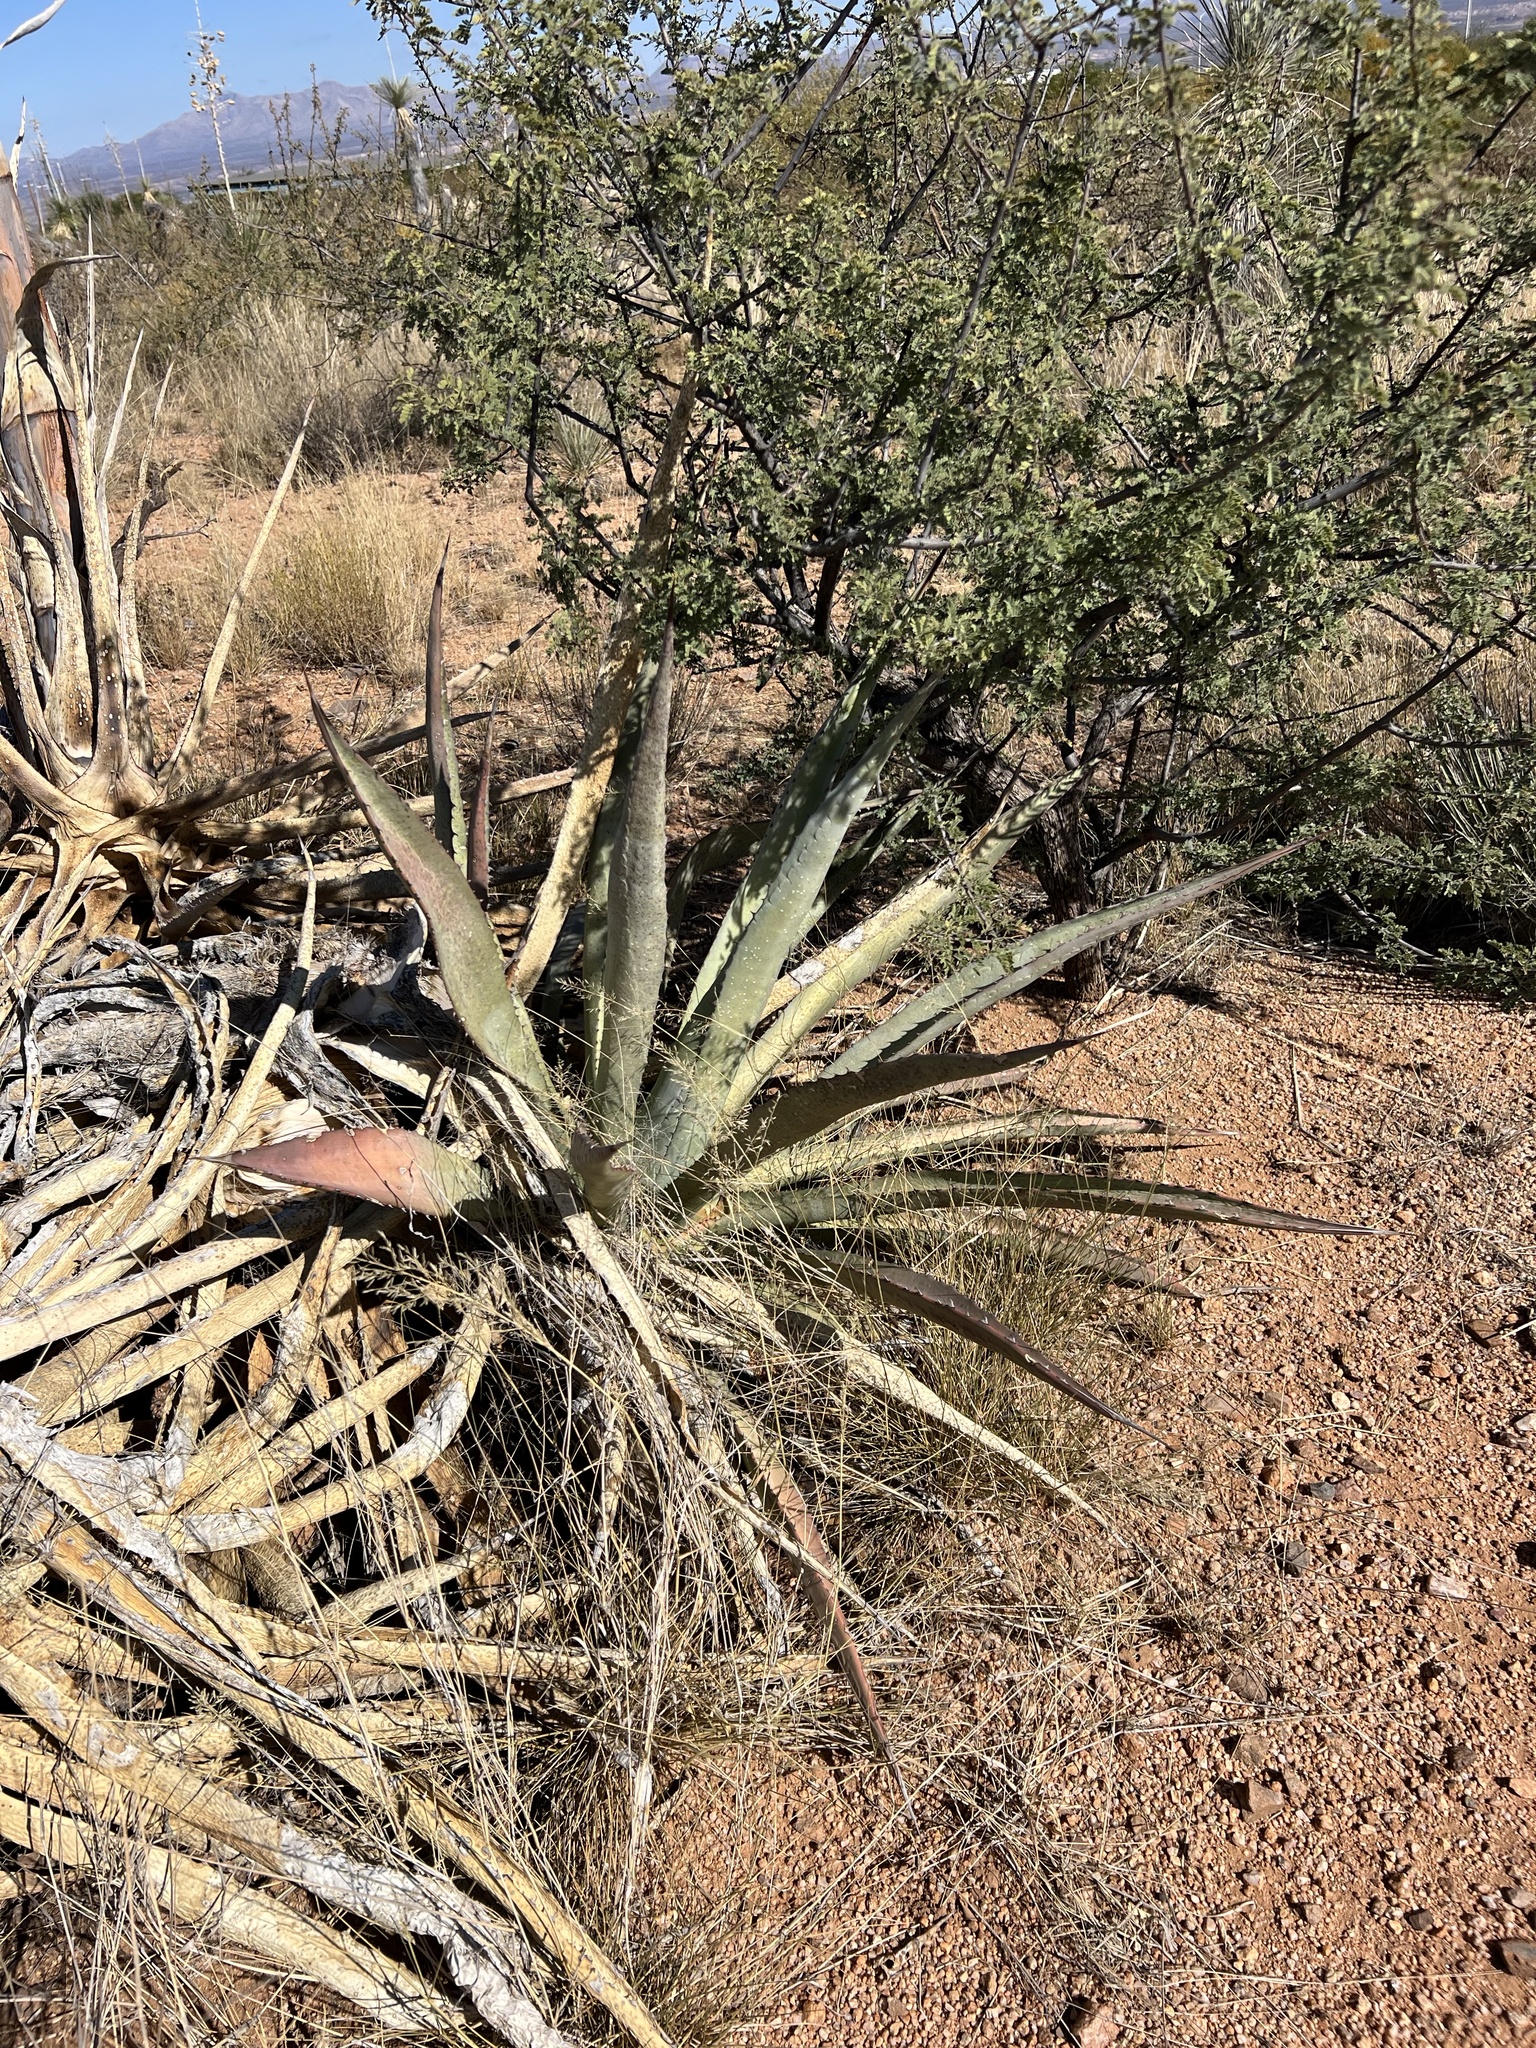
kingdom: Plantae
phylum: Tracheophyta
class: Liliopsida
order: Asparagales
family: Asparagaceae
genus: Agave
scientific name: Agave palmeri
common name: Palmer agave
